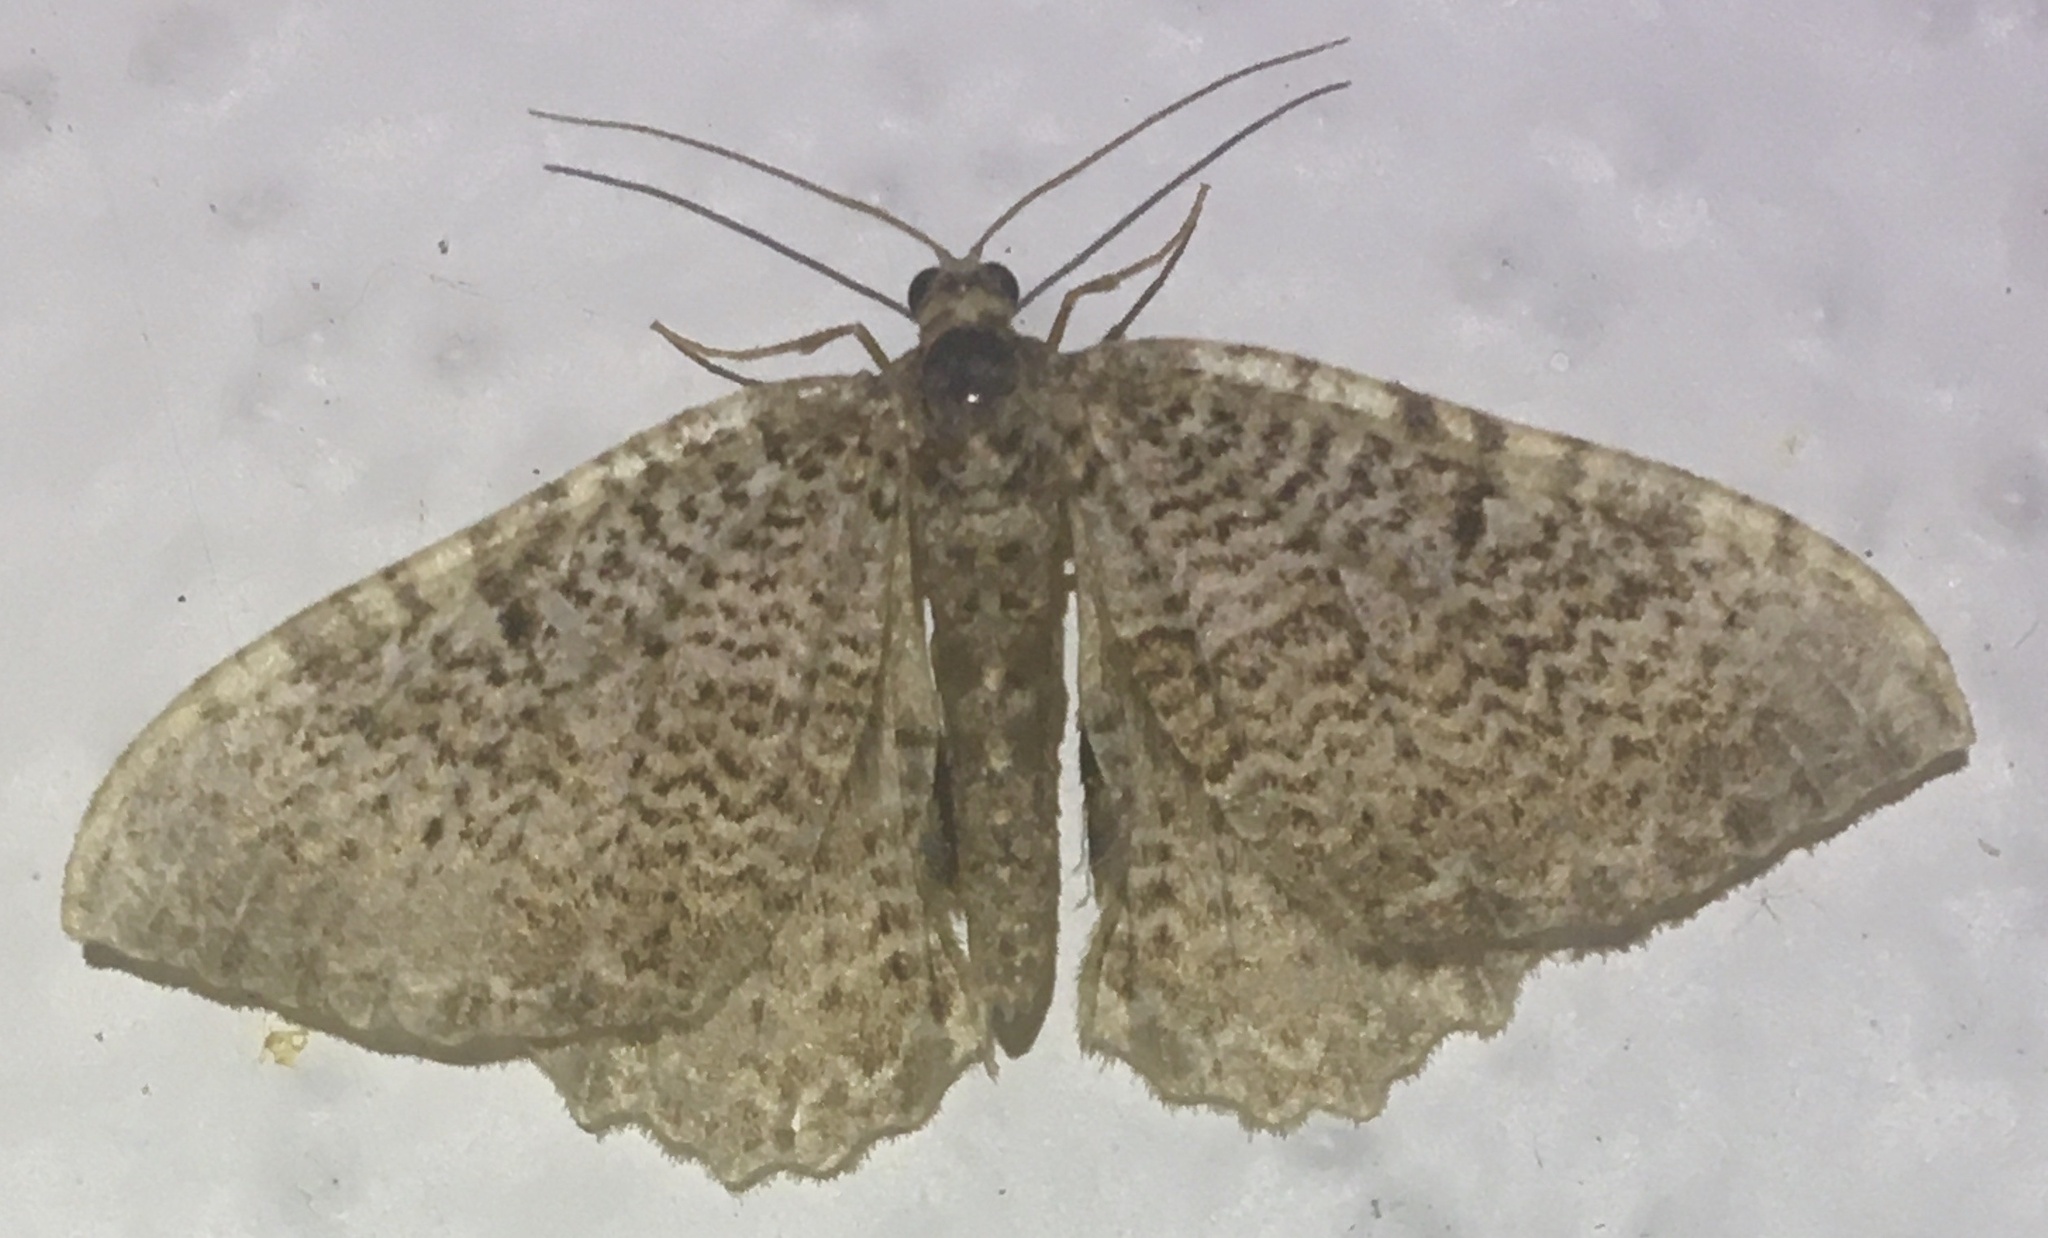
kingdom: Animalia
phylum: Arthropoda
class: Insecta
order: Lepidoptera
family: Geometridae
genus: Rheumaptera
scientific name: Rheumaptera undulata
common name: Scallop shell
